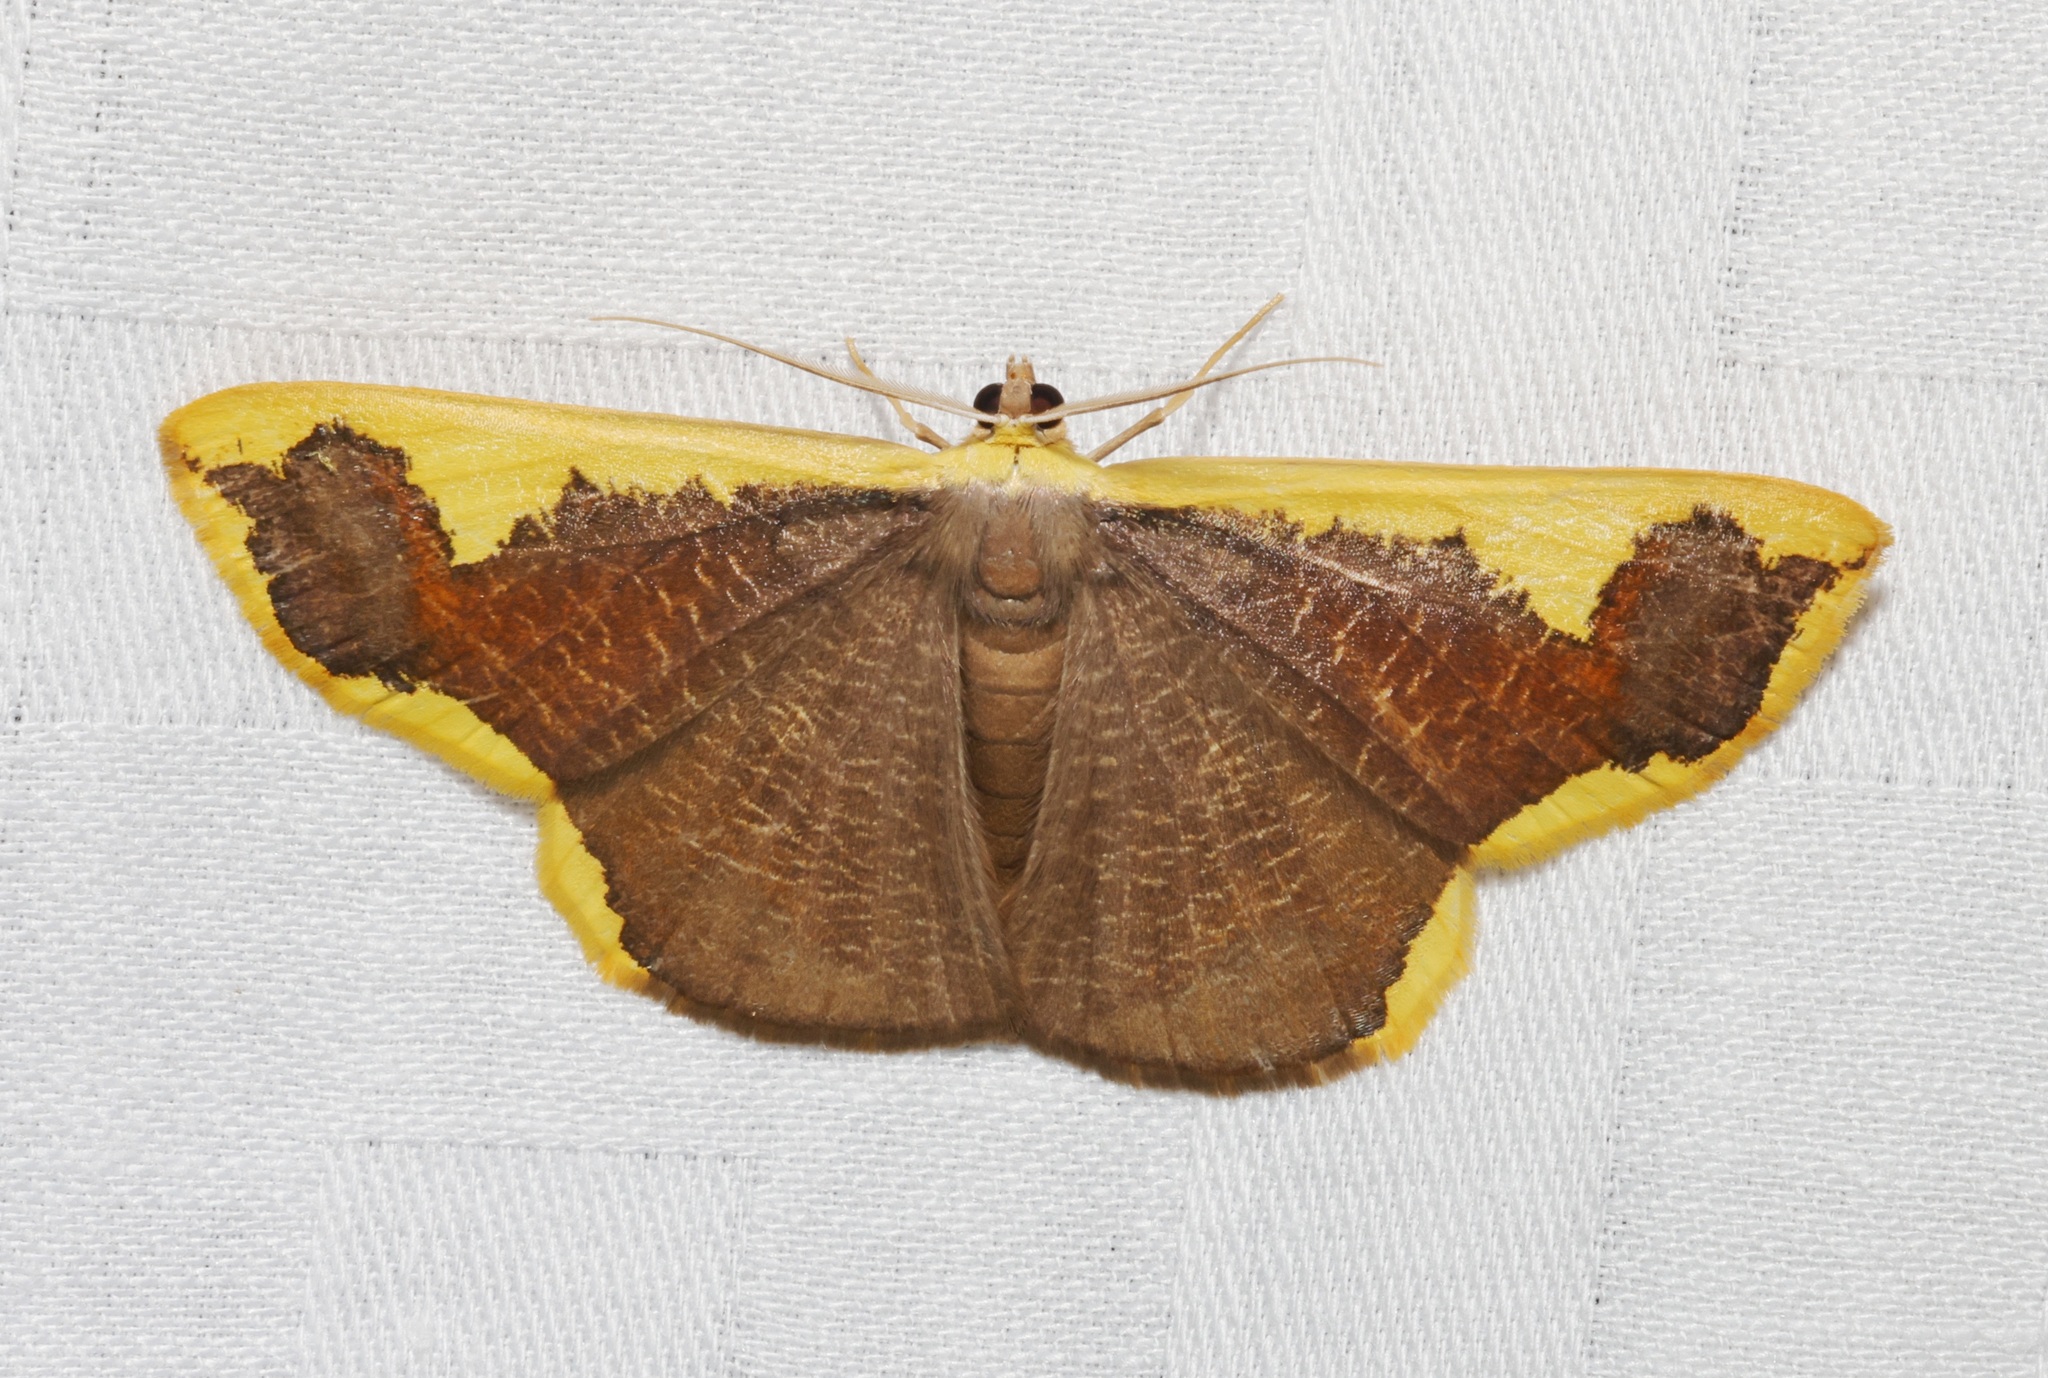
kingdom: Animalia
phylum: Arthropoda
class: Insecta
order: Lepidoptera
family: Geometridae
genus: Plutodes
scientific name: Plutodes costatus
